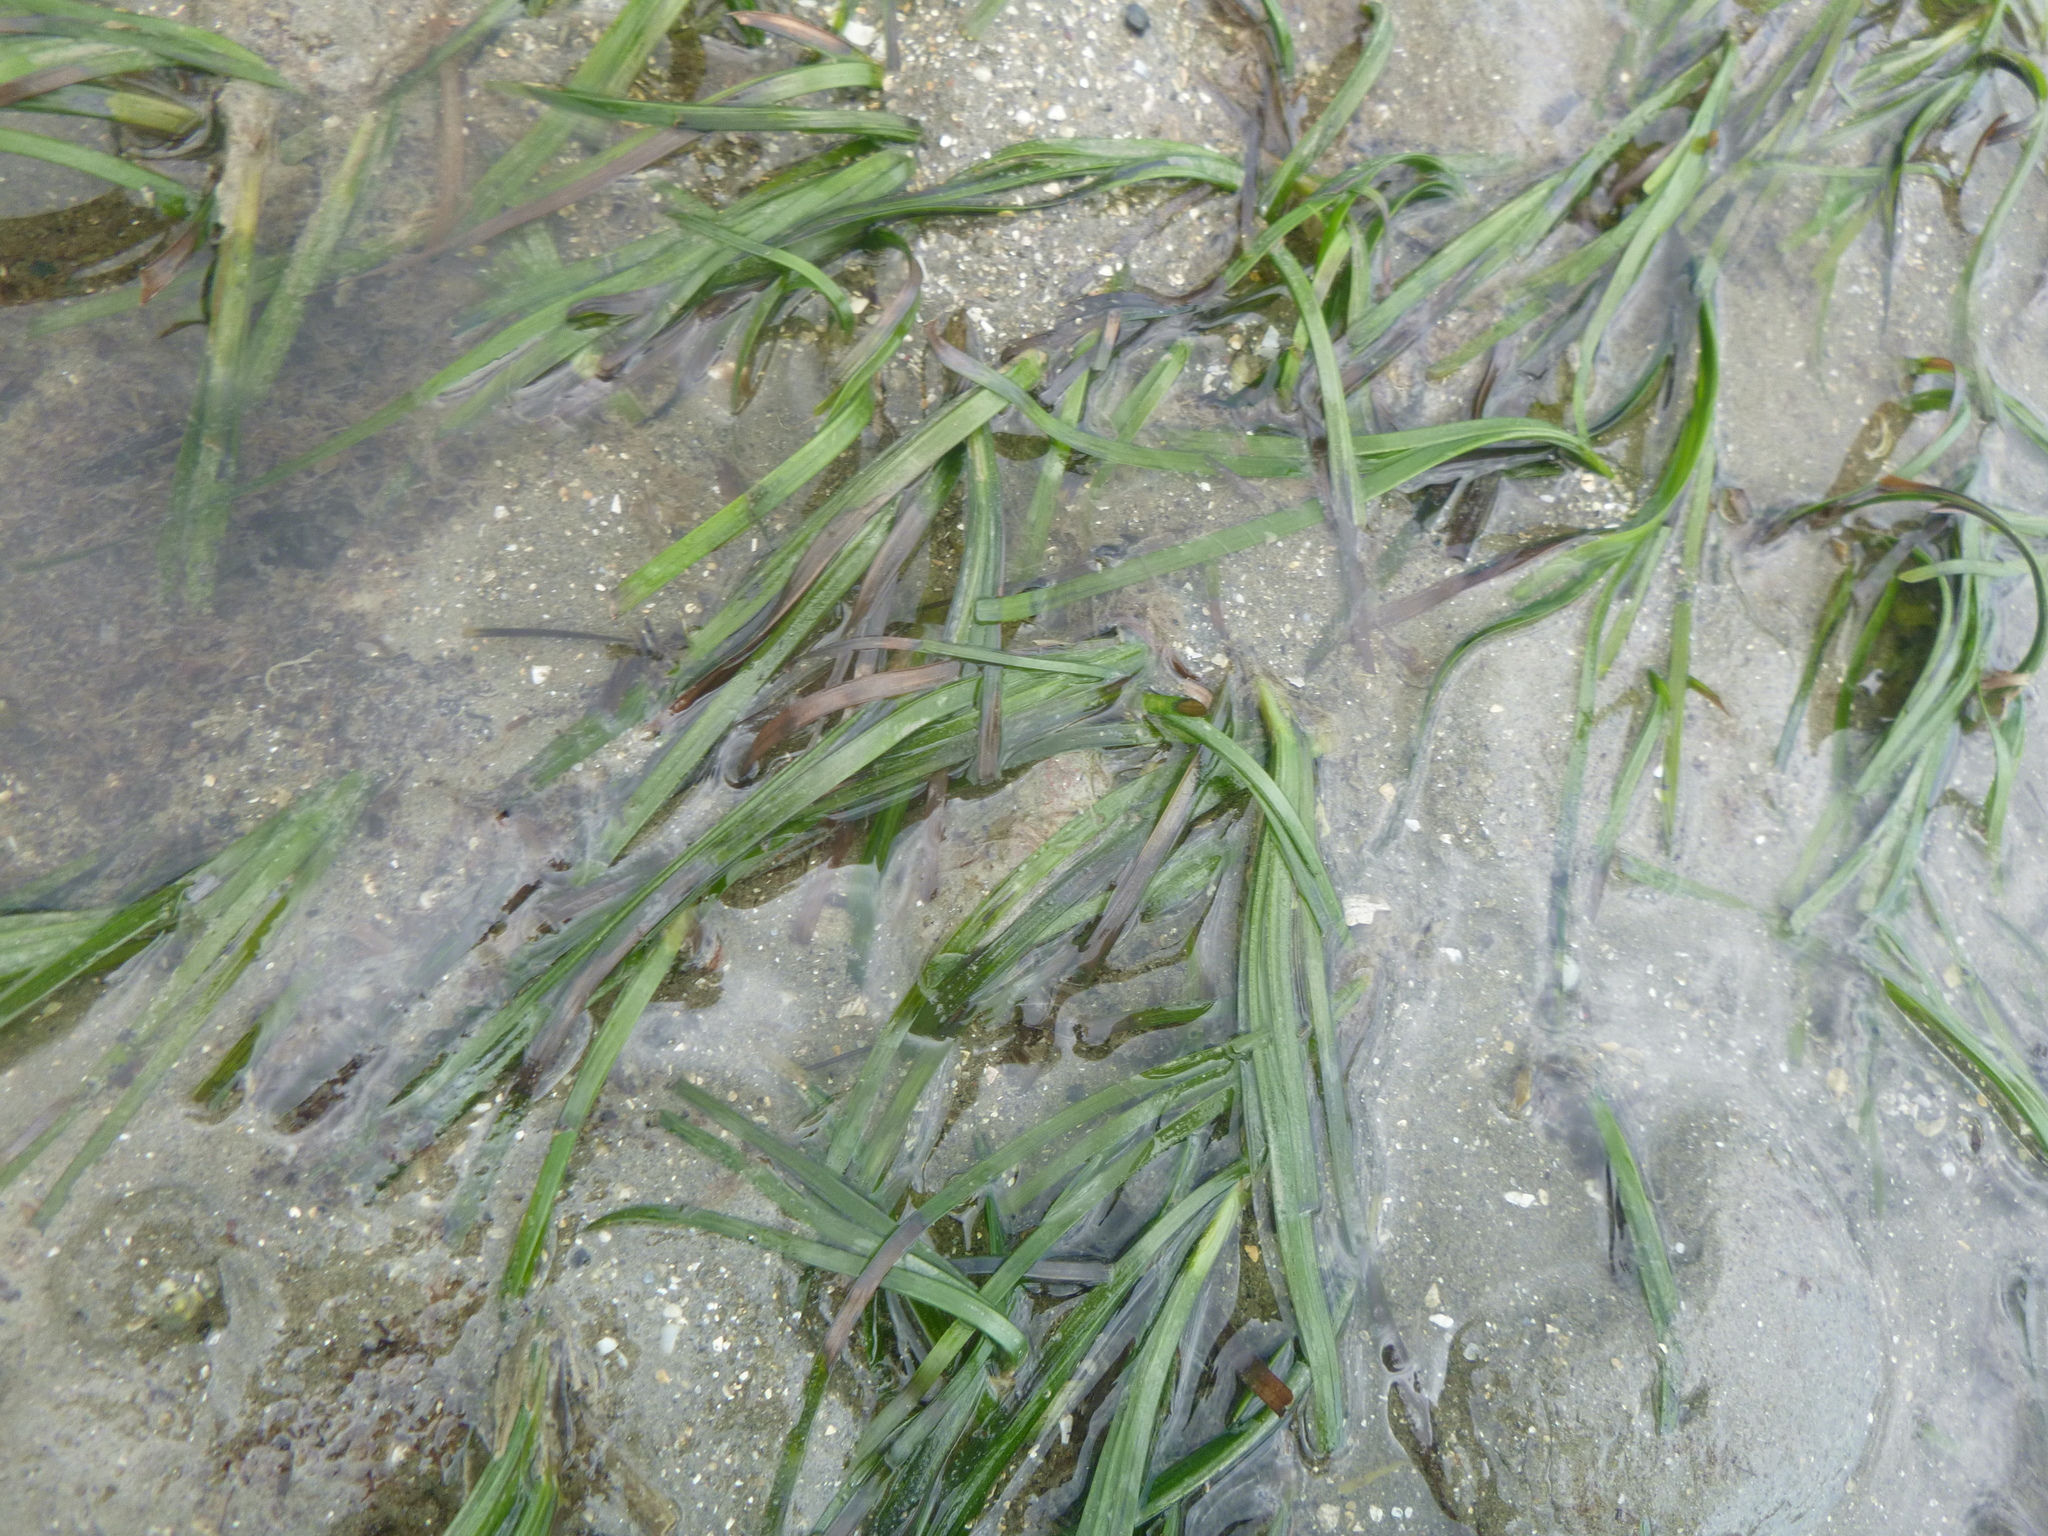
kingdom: Plantae
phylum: Tracheophyta
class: Liliopsida
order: Alismatales
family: Zosteraceae
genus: Zostera
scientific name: Zostera novazelandica
